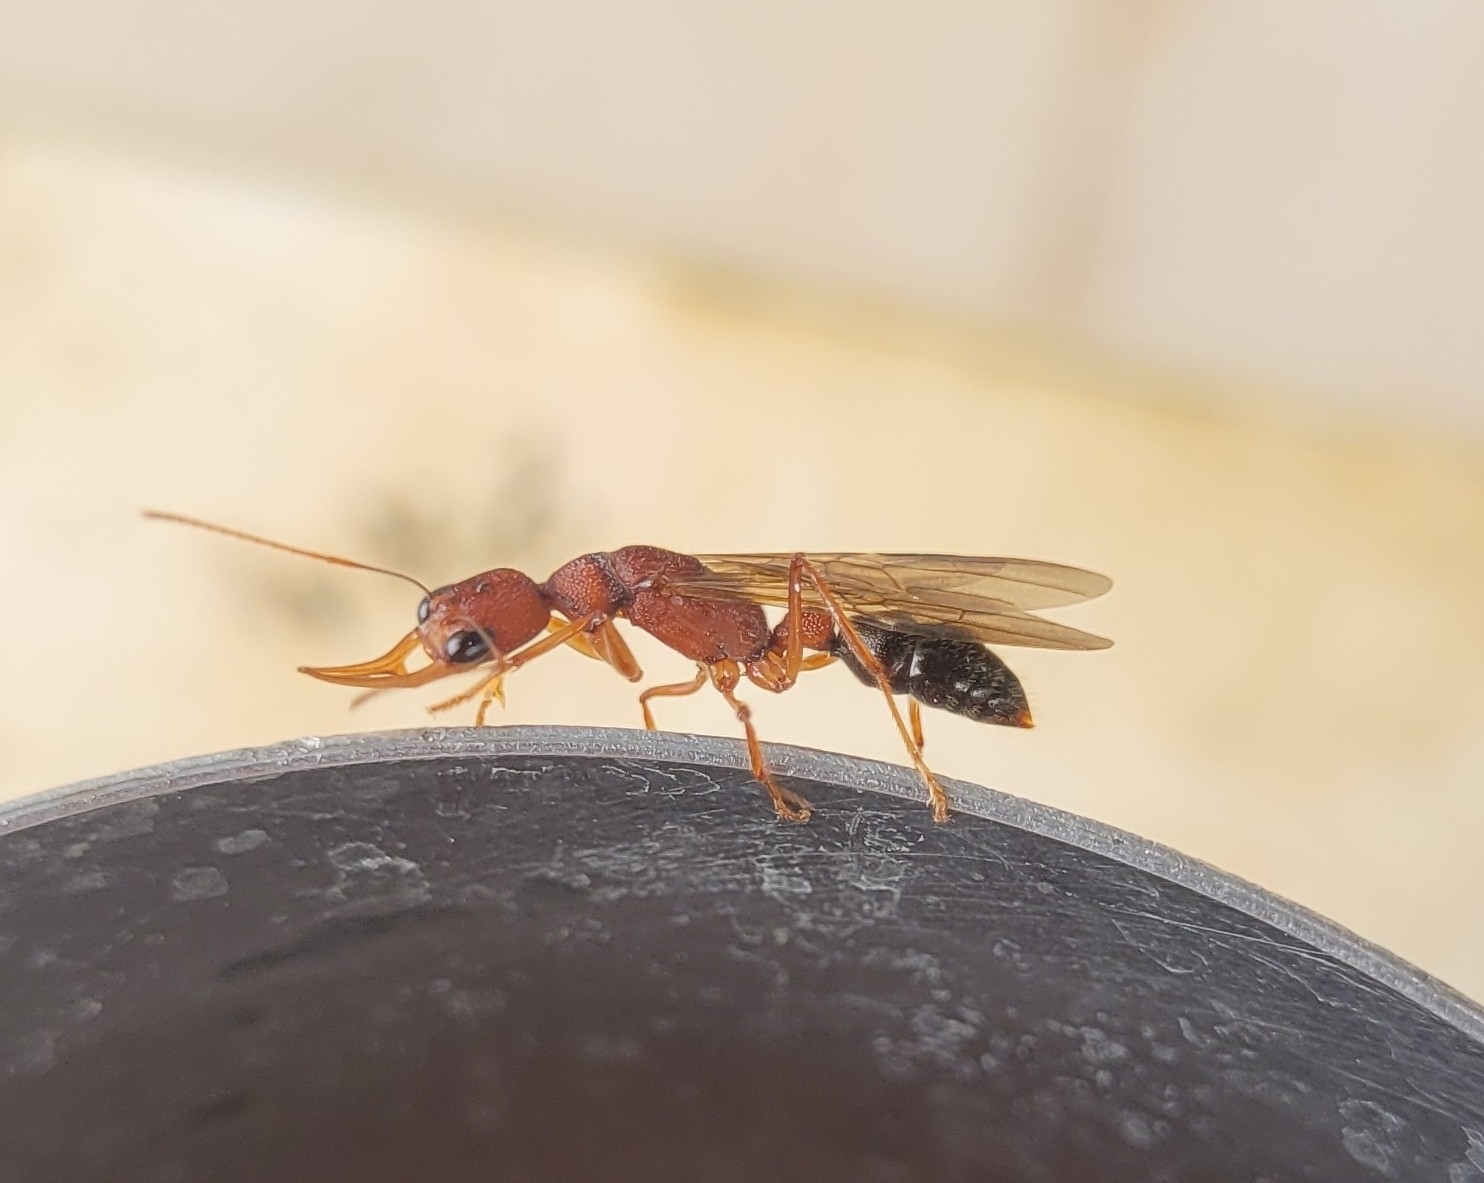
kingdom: Animalia
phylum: Arthropoda
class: Insecta
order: Hymenoptera
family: Formicidae
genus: Harpegnathos
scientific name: Harpegnathos saltator
